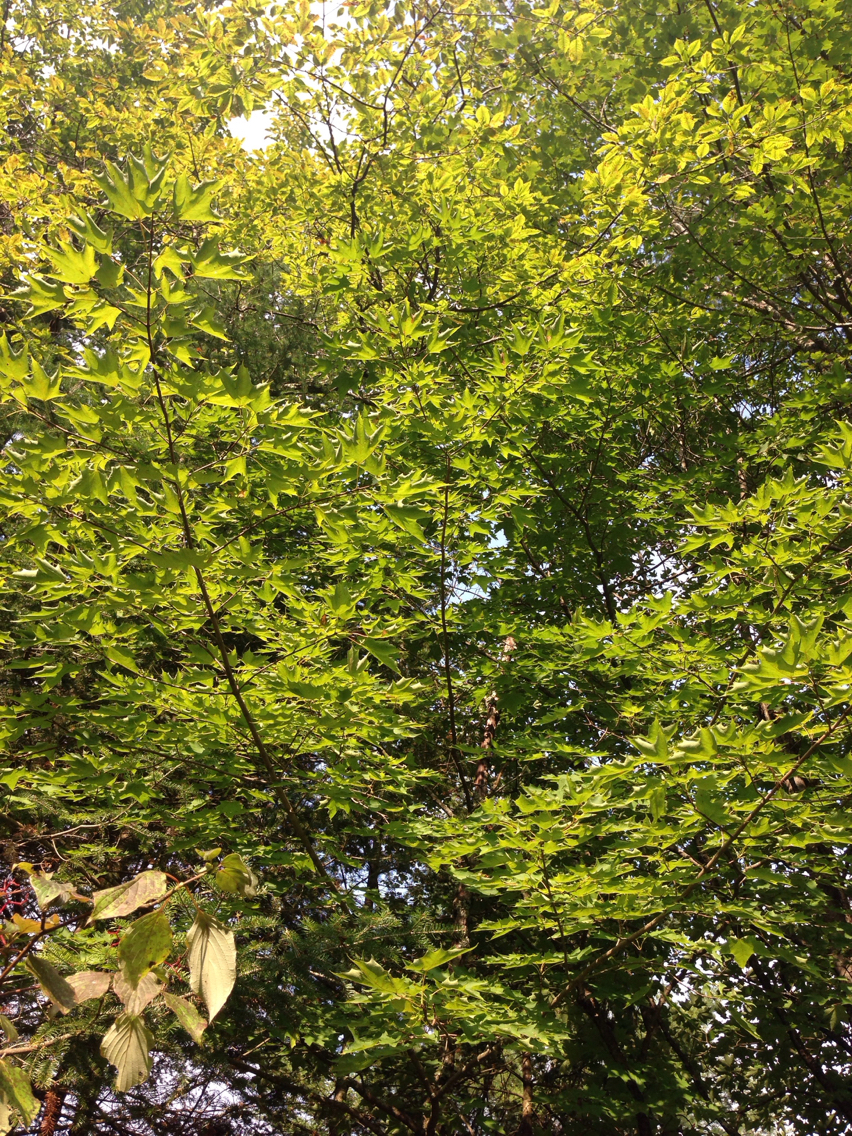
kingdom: Plantae
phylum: Tracheophyta
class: Magnoliopsida
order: Sapindales
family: Sapindaceae
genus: Acer
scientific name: Acer saccharum
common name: Sugar maple
